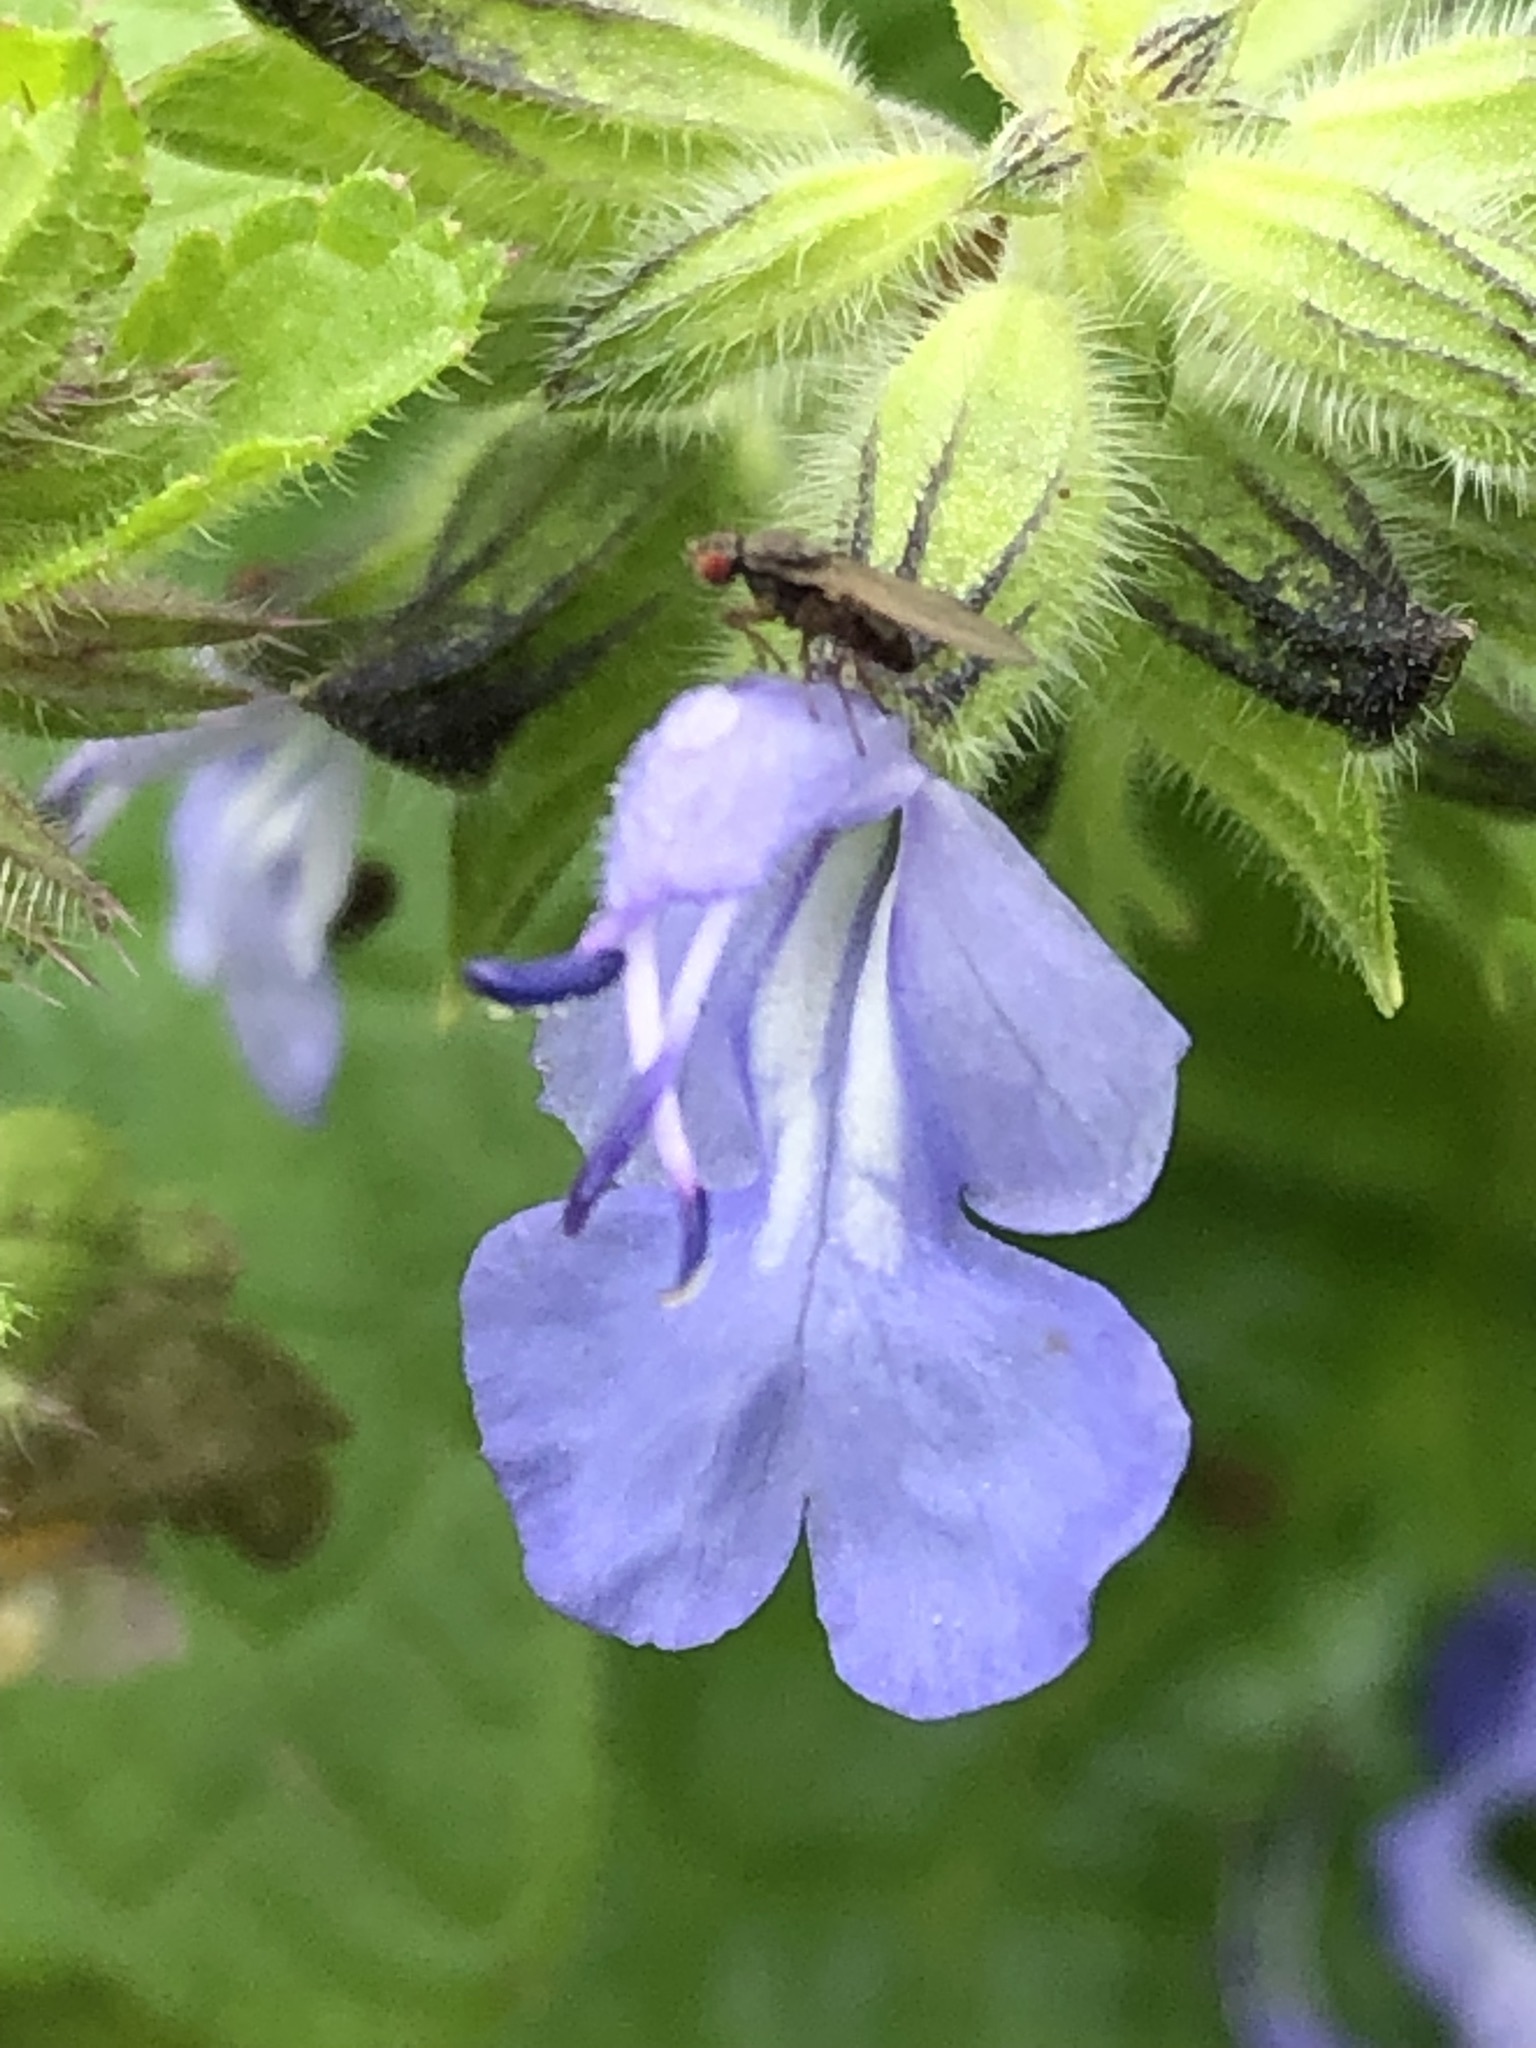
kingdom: Plantae
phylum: Tracheophyta
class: Magnoliopsida
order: Lamiales
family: Lamiaceae
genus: Salvia
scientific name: Salvia rhombifolia
